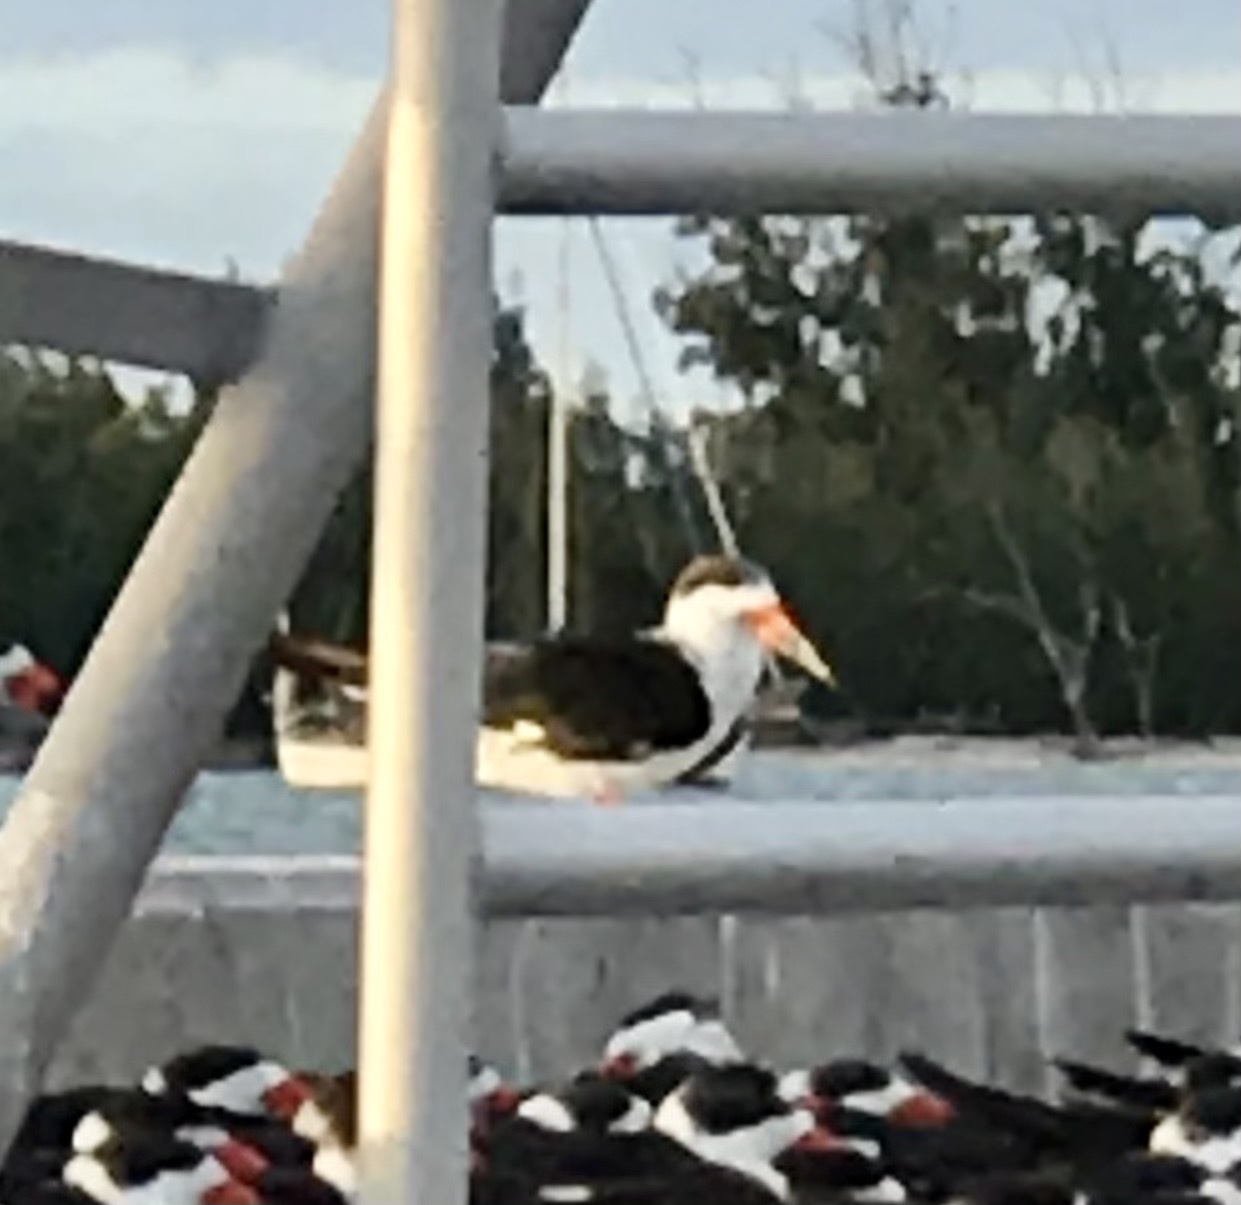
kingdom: Animalia
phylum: Chordata
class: Aves
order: Charadriiformes
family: Laridae
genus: Rynchops
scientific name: Rynchops niger
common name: Black skimmer
